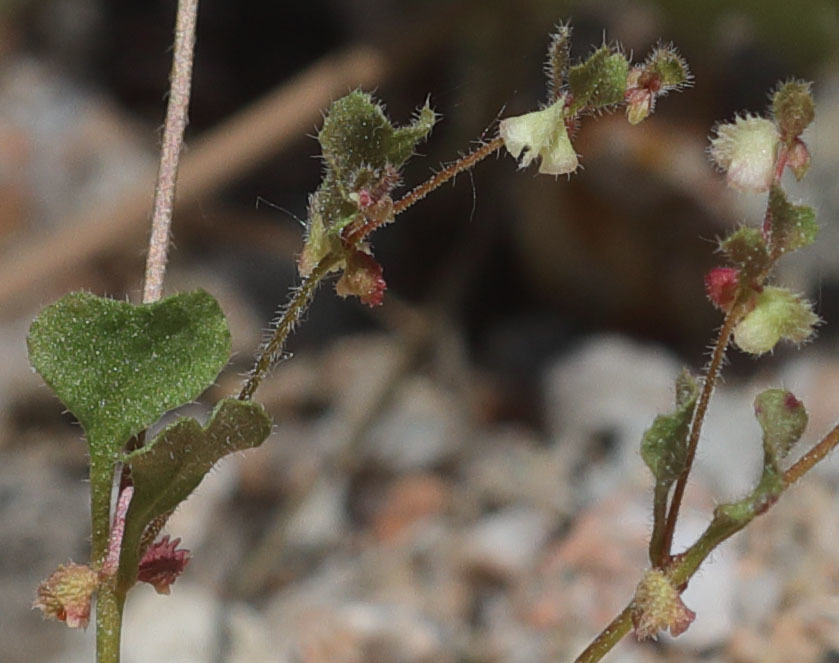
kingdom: Plantae
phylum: Tracheophyta
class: Magnoliopsida
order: Caryophyllales
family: Polygonaceae
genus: Pterostegia
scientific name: Pterostegia drymarioides
